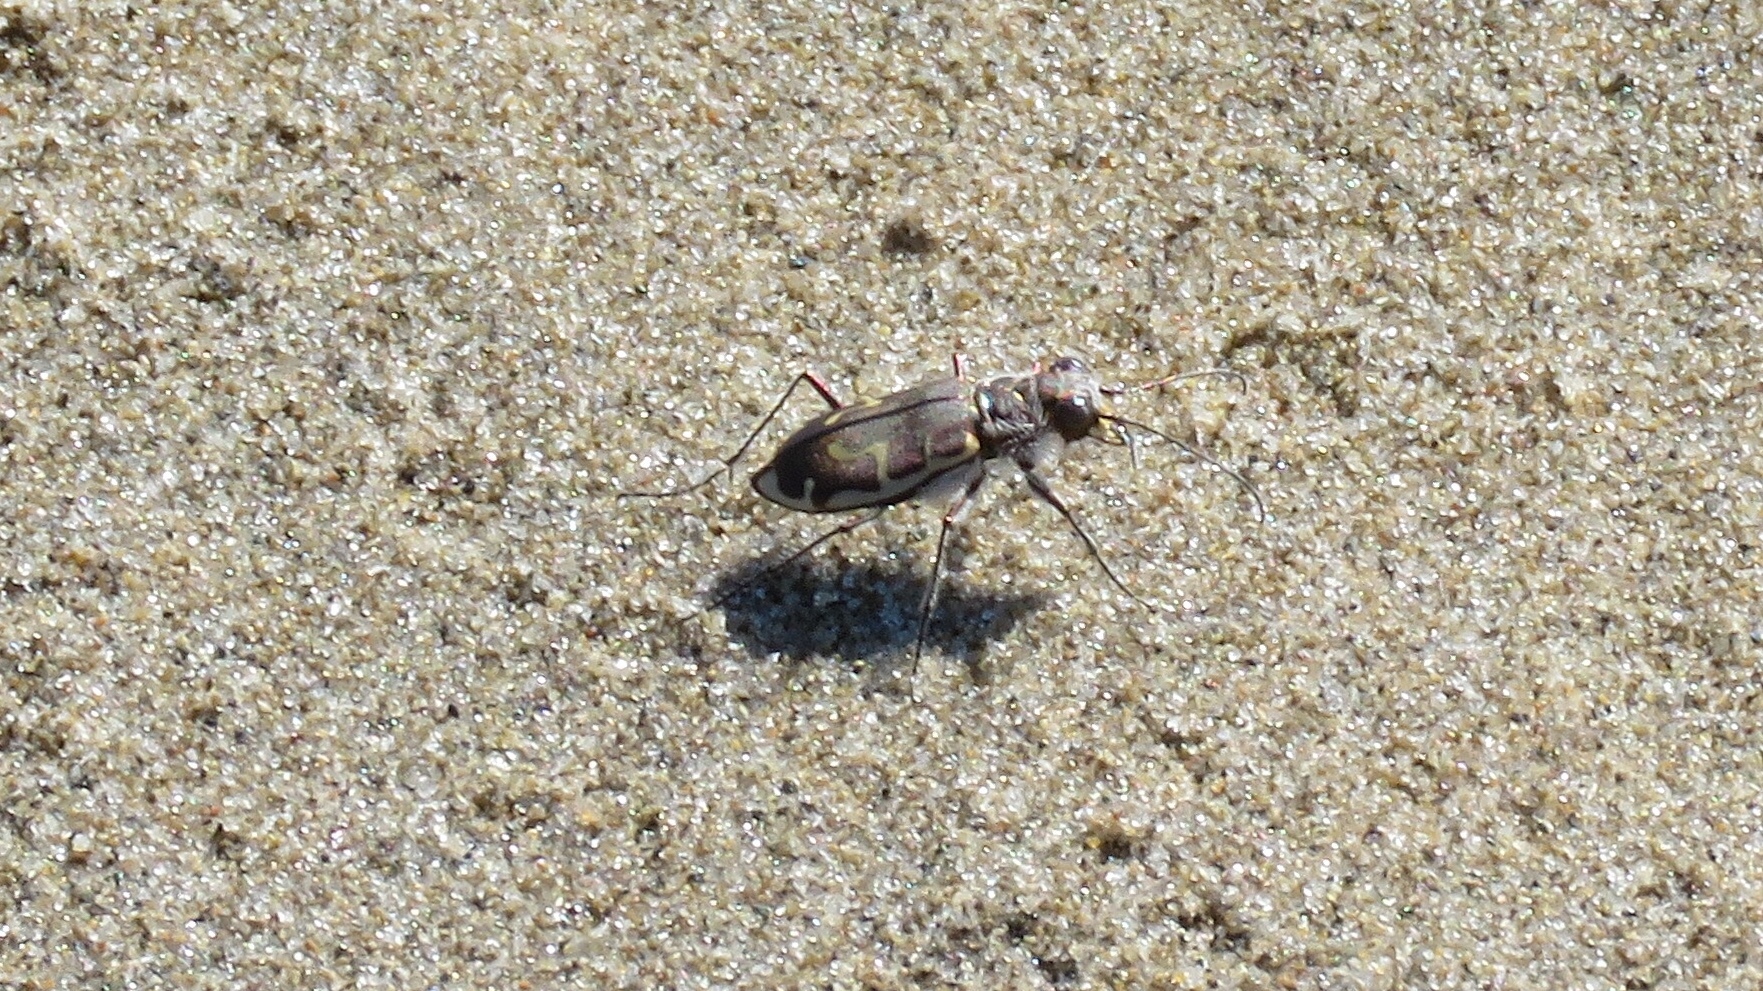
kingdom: Animalia
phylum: Arthropoda
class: Insecta
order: Coleoptera
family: Carabidae
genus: Cicindela
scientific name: Cicindela hirticollis
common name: Hairy-necked tiger beetle
